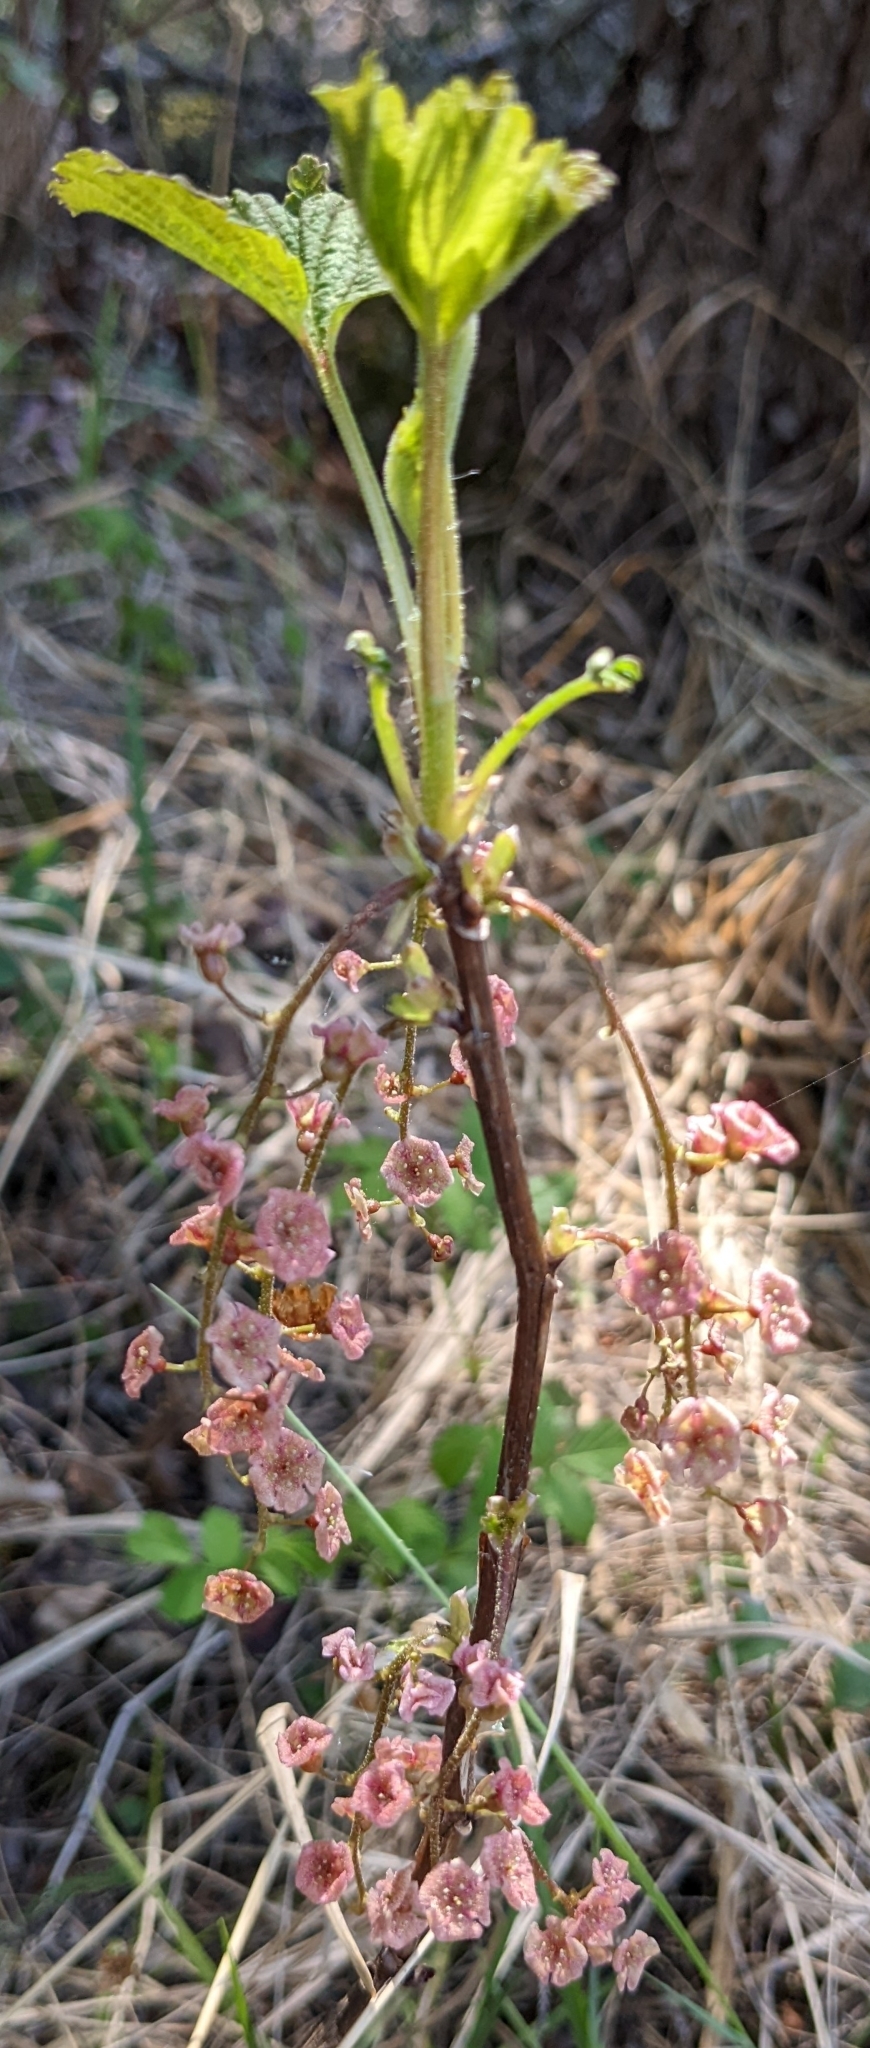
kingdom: Plantae
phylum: Tracheophyta
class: Magnoliopsida
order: Saxifragales
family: Grossulariaceae
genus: Ribes
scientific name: Ribes triste
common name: Swamp red currant
